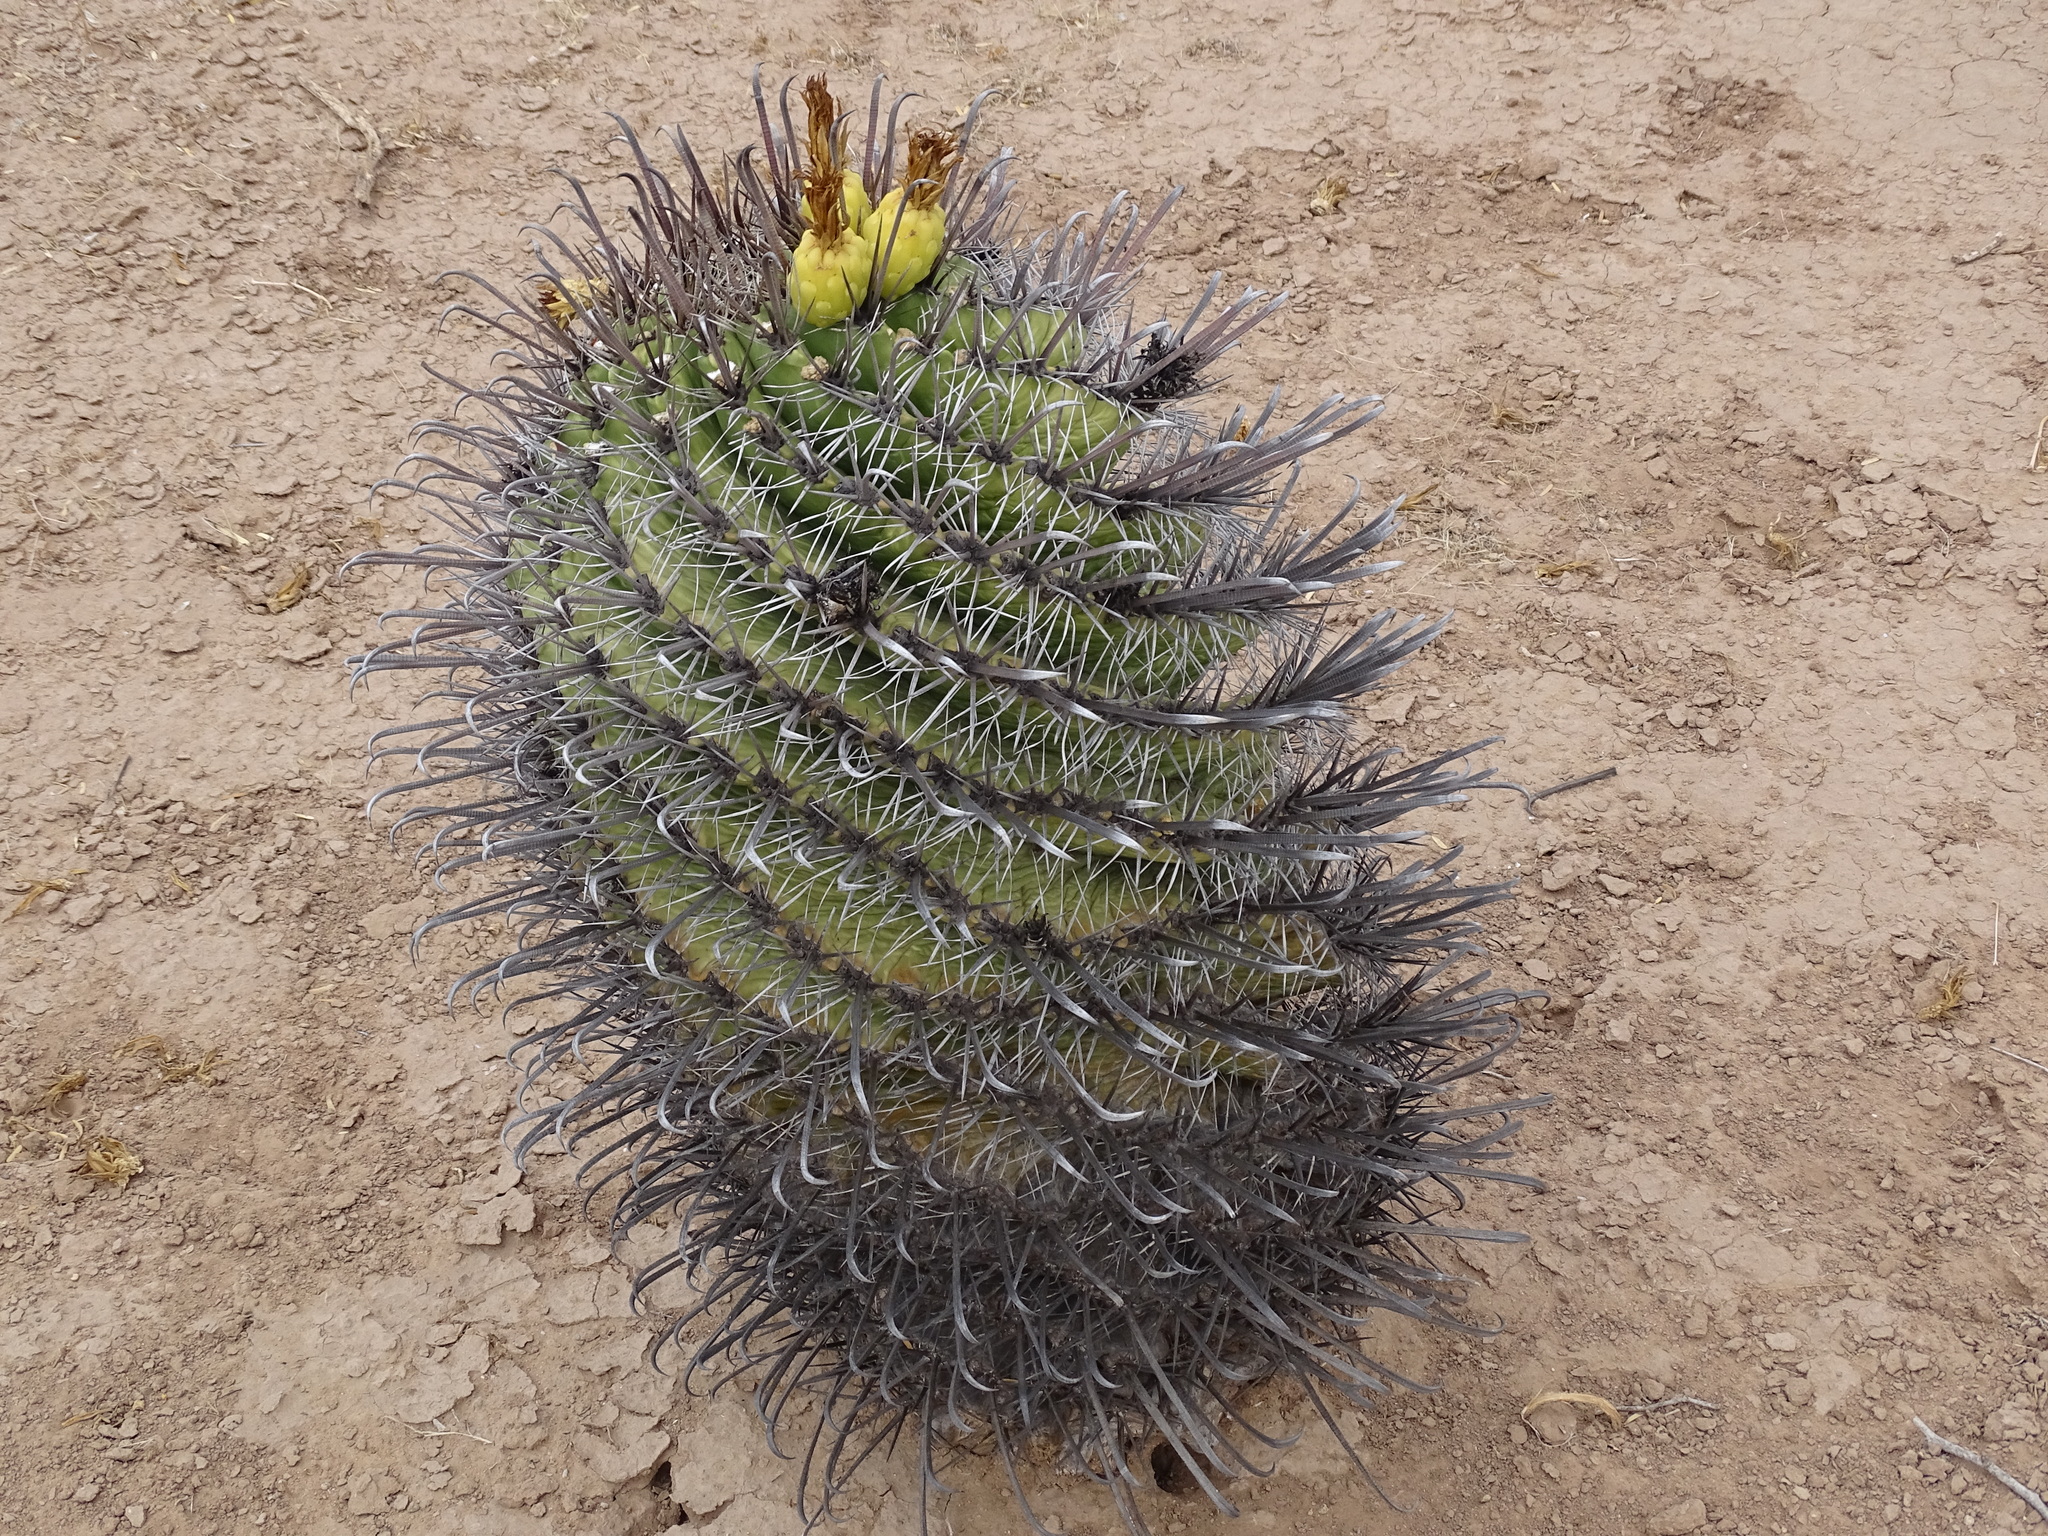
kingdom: Plantae
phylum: Tracheophyta
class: Magnoliopsida
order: Caryophyllales
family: Cactaceae
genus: Ferocactus
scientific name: Ferocactus wislizeni
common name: Candy barrel cactus
